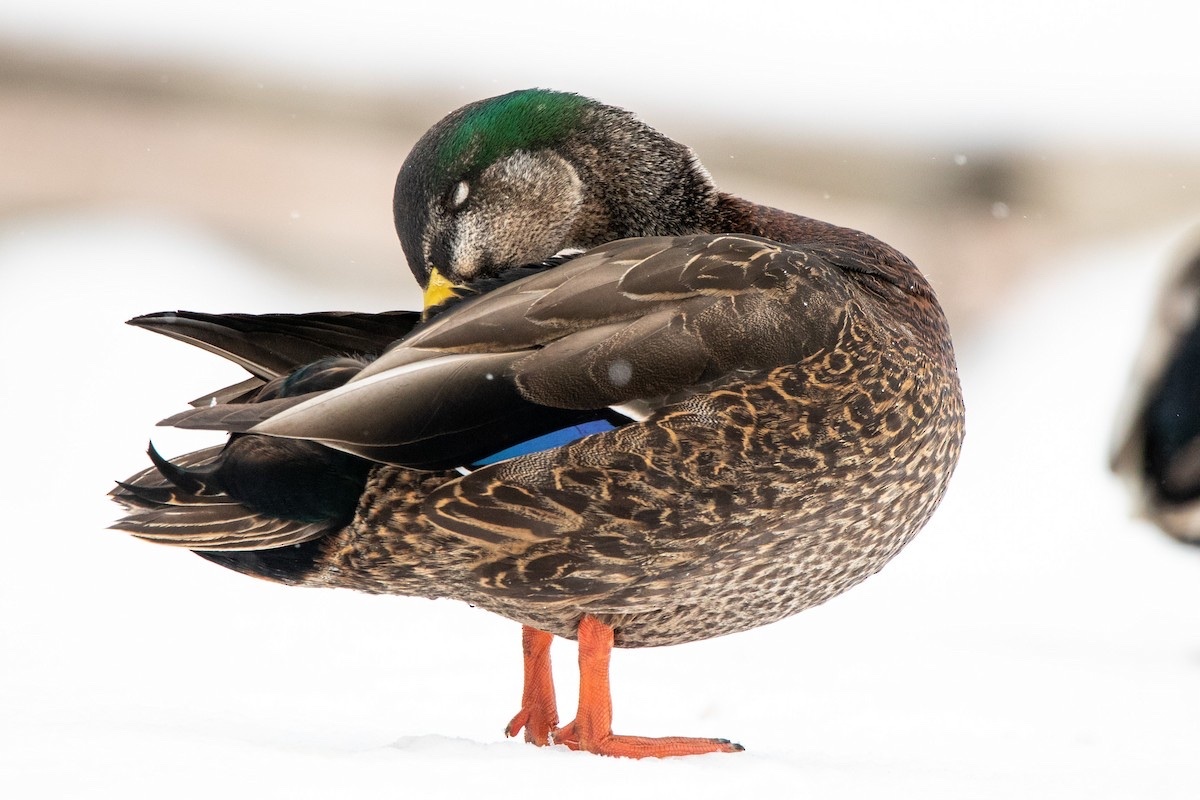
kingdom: Animalia
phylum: Chordata
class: Aves
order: Anseriformes
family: Anatidae
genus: Anas
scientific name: Anas
